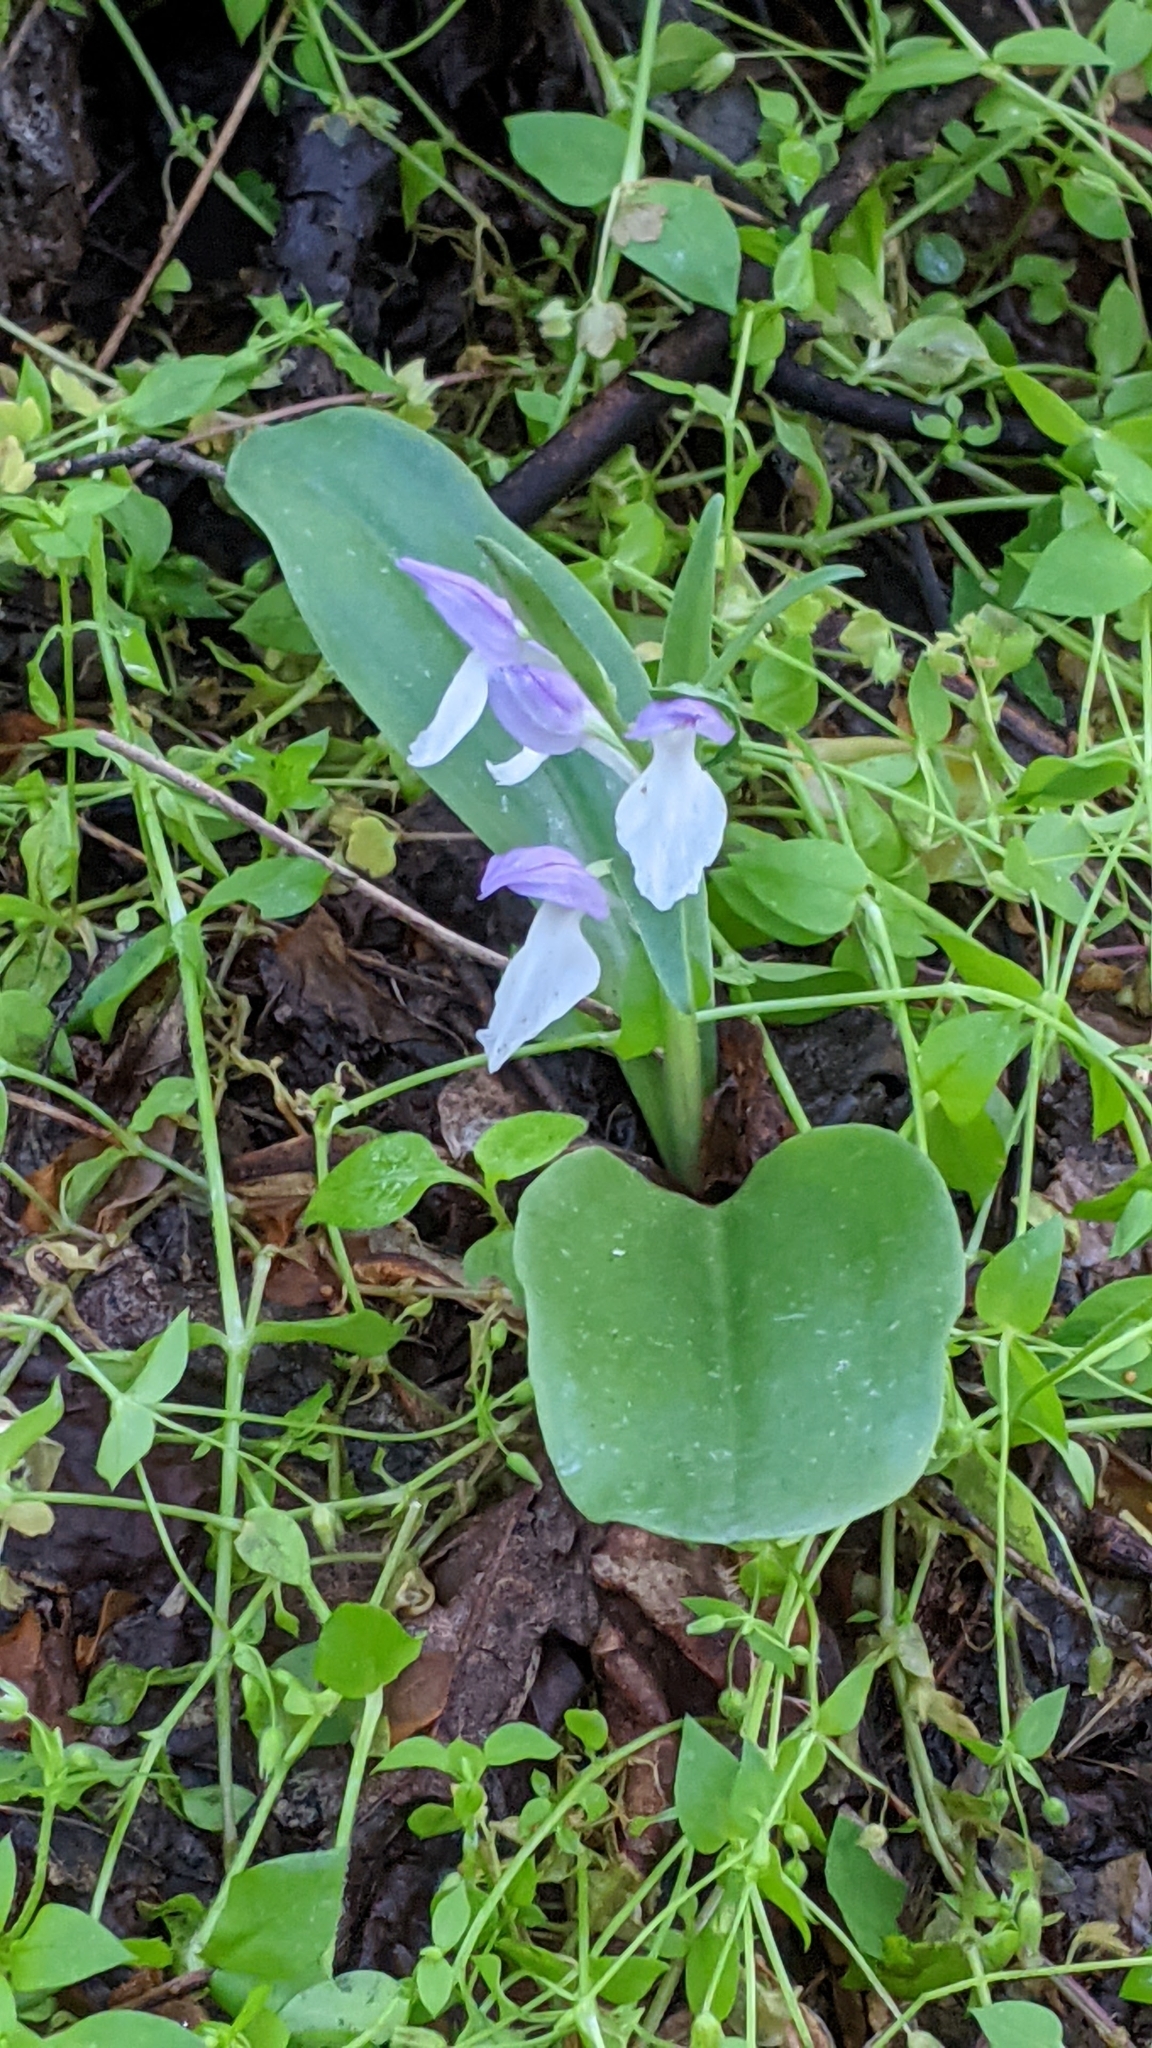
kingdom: Plantae
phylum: Tracheophyta
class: Liliopsida
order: Asparagales
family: Orchidaceae
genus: Galearis
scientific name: Galearis spectabilis
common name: Purple-hooded orchis
